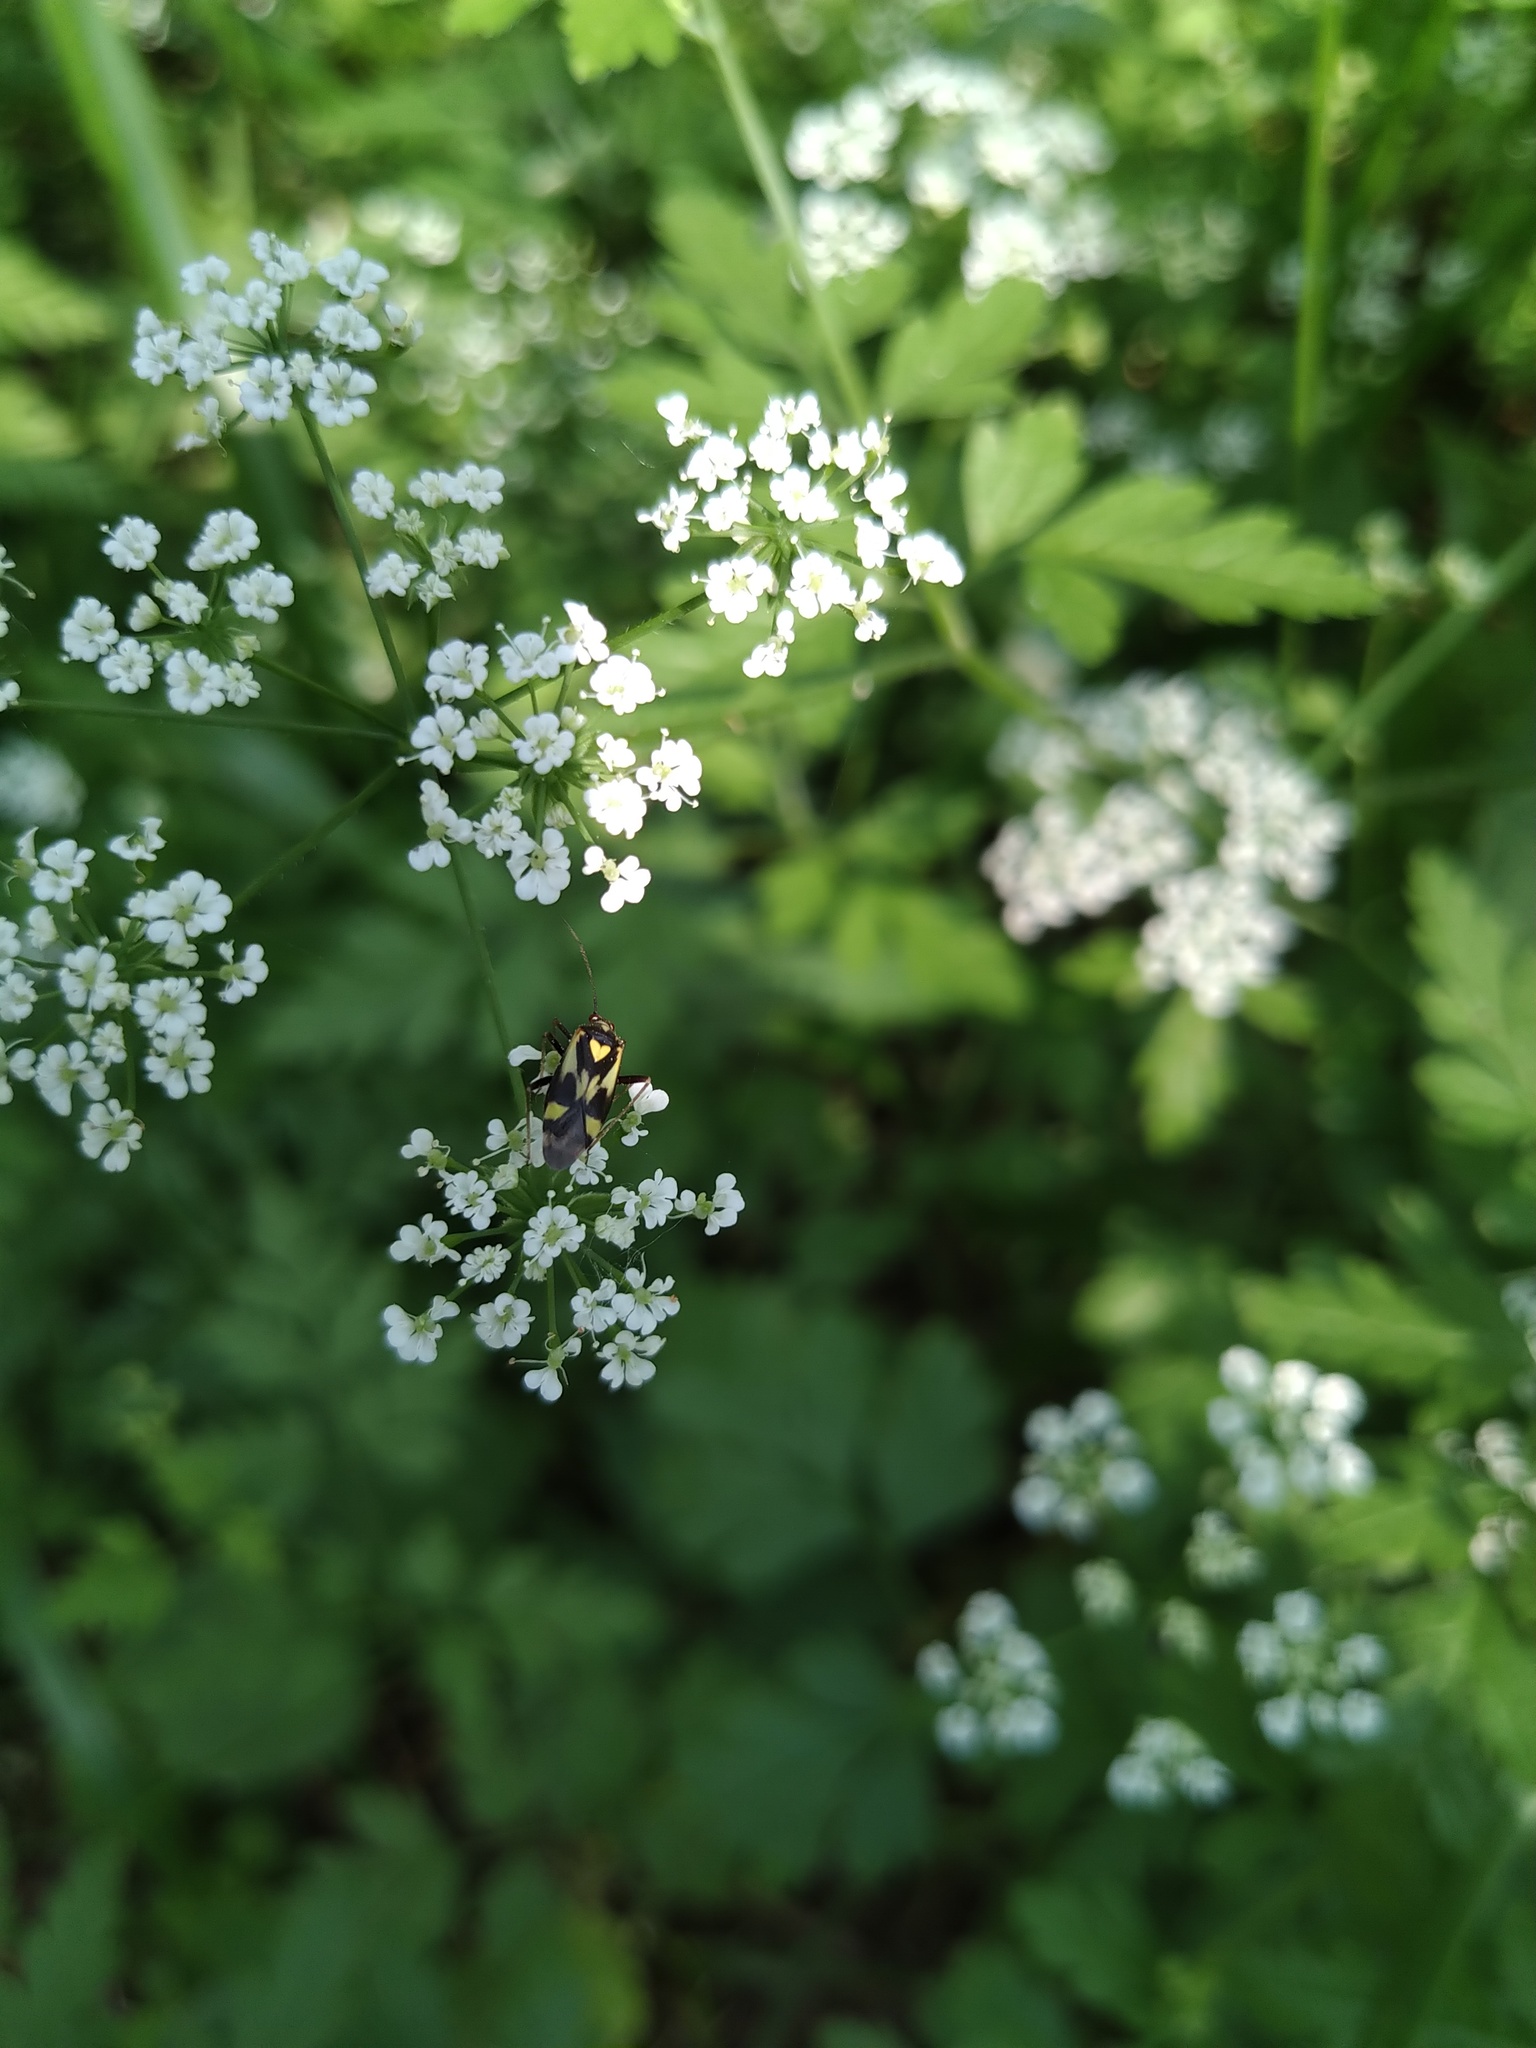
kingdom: Animalia
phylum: Arthropoda
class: Insecta
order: Hemiptera
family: Miridae
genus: Grypocoris
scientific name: Grypocoris sexguttatus
